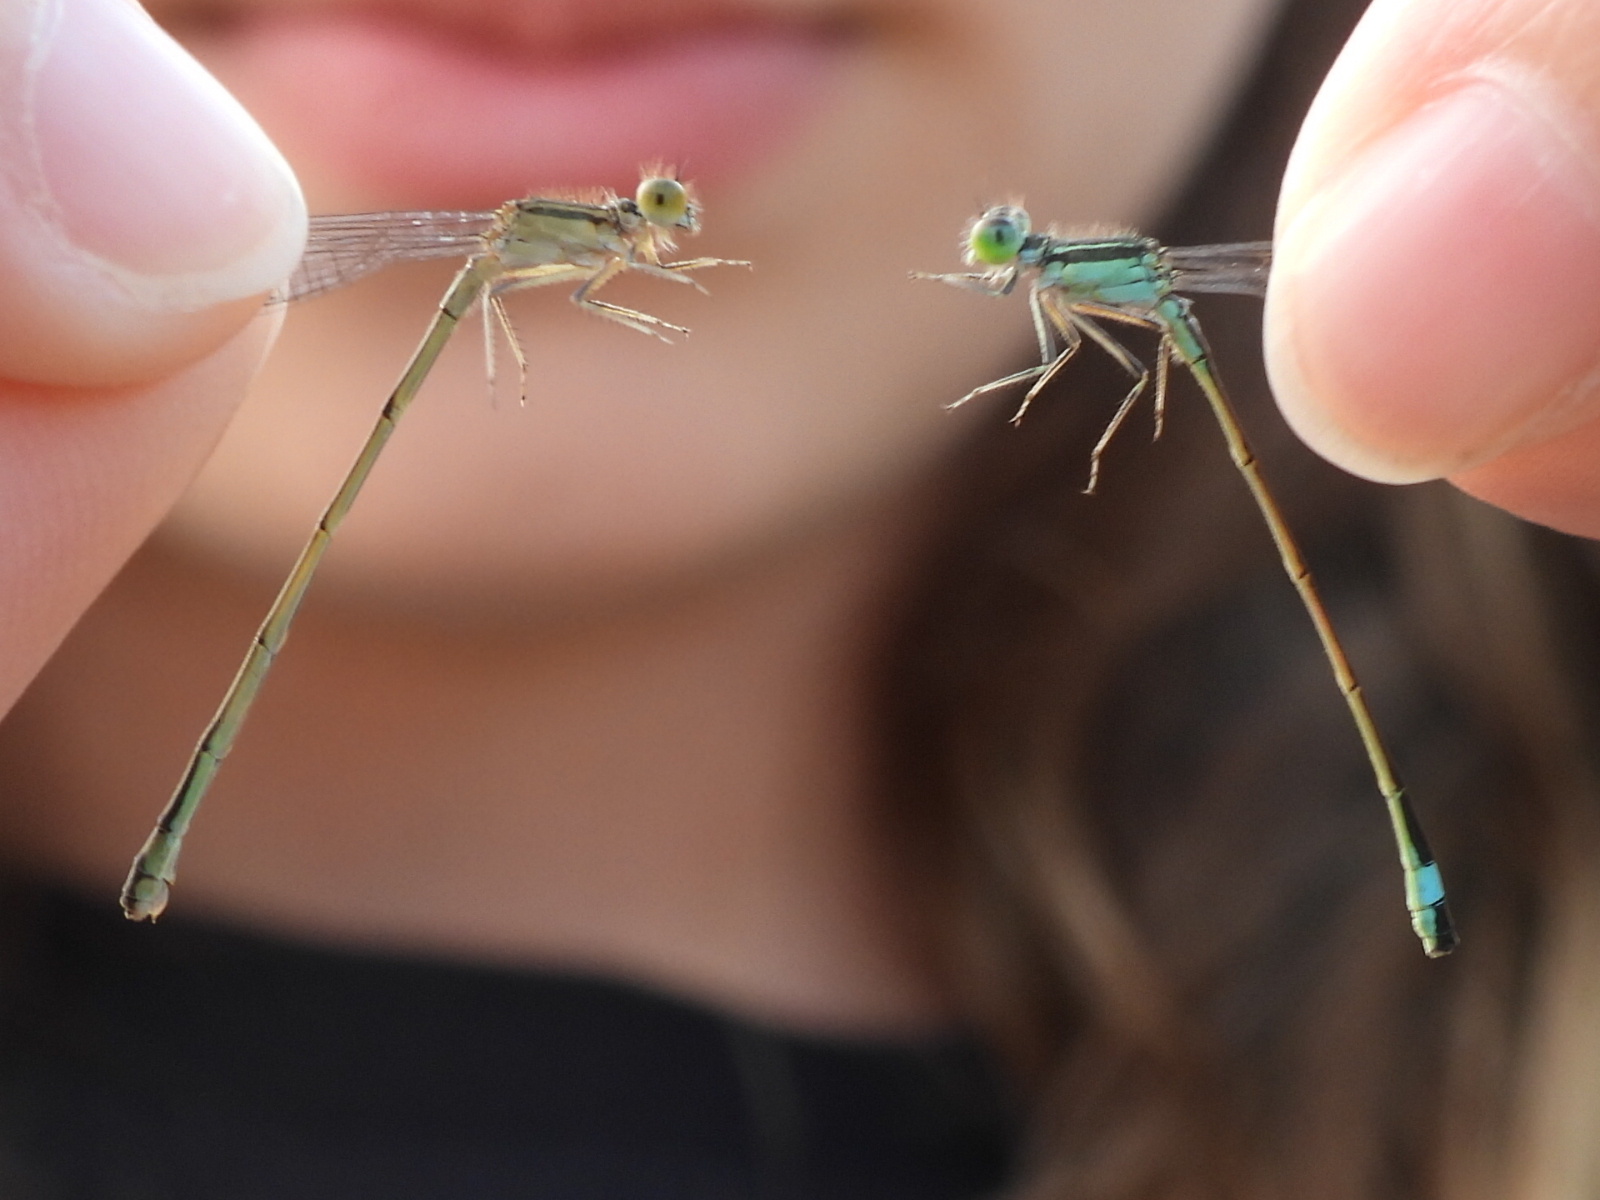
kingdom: Animalia
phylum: Arthropoda
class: Insecta
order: Odonata
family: Coenagrionidae
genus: Ischnura
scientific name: Ischnura evansi
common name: Desert bluetail
